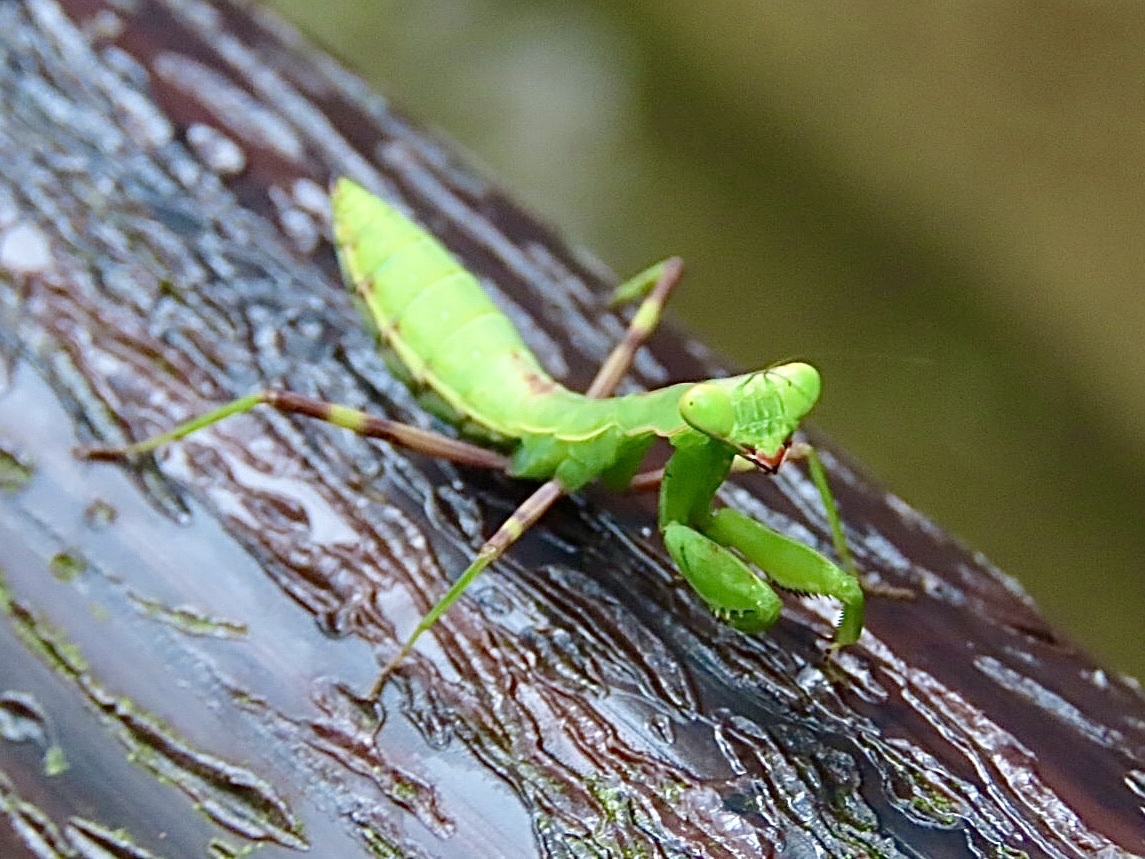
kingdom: Animalia
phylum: Arthropoda
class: Insecta
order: Mantodea
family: Mantidae
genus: Hierodula
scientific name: Hierodula patellifera
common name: Asian mantis
